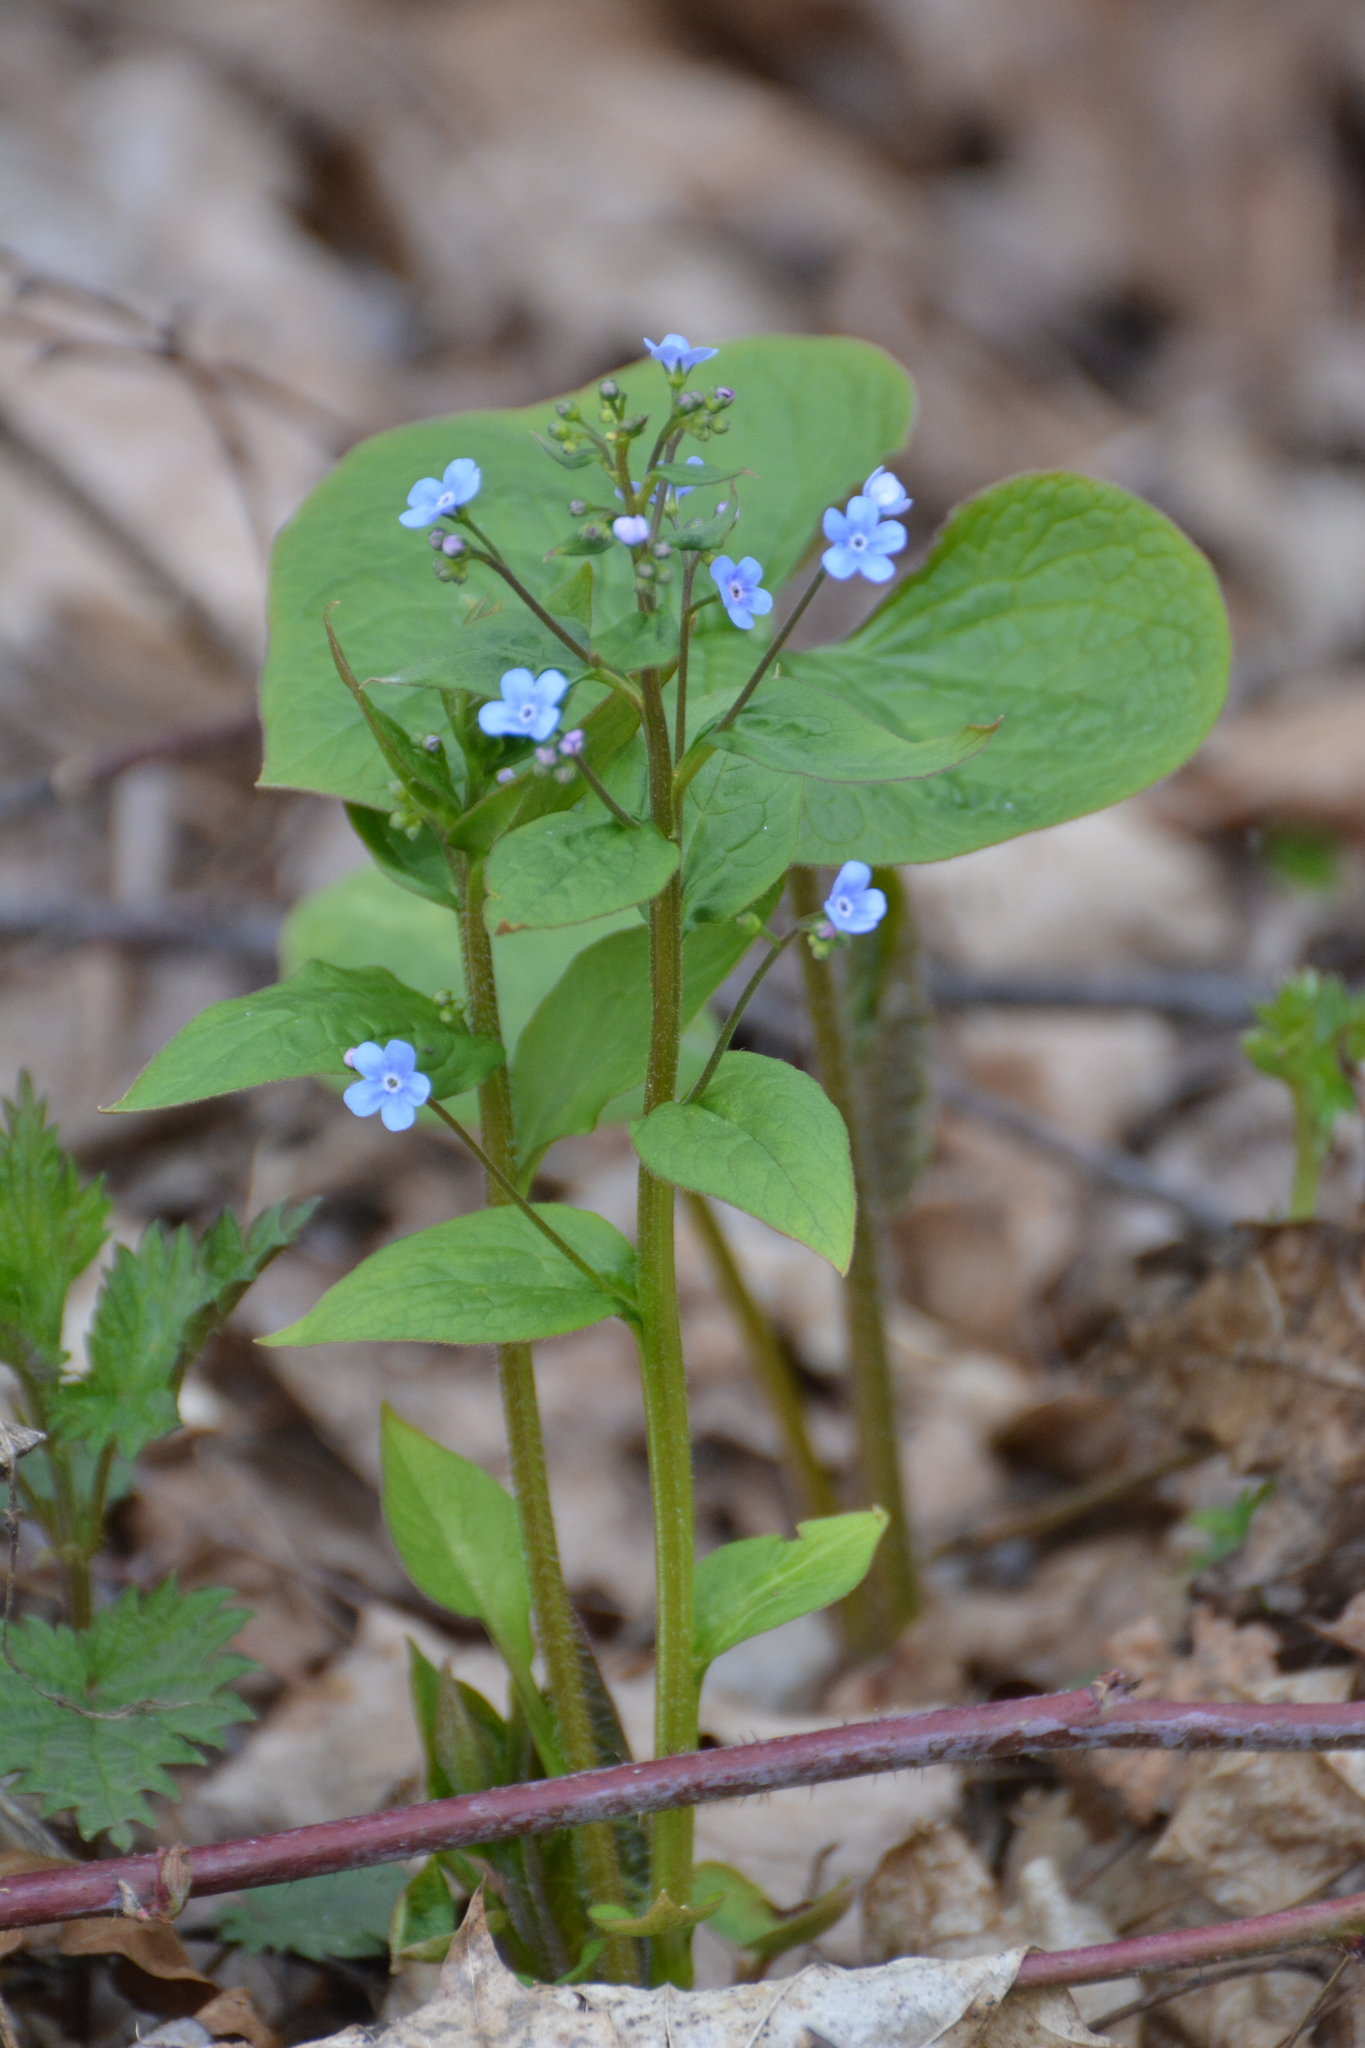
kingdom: Plantae
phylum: Tracheophyta
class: Magnoliopsida
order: Boraginales
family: Boraginaceae
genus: Brunnera
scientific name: Brunnera sibirica
